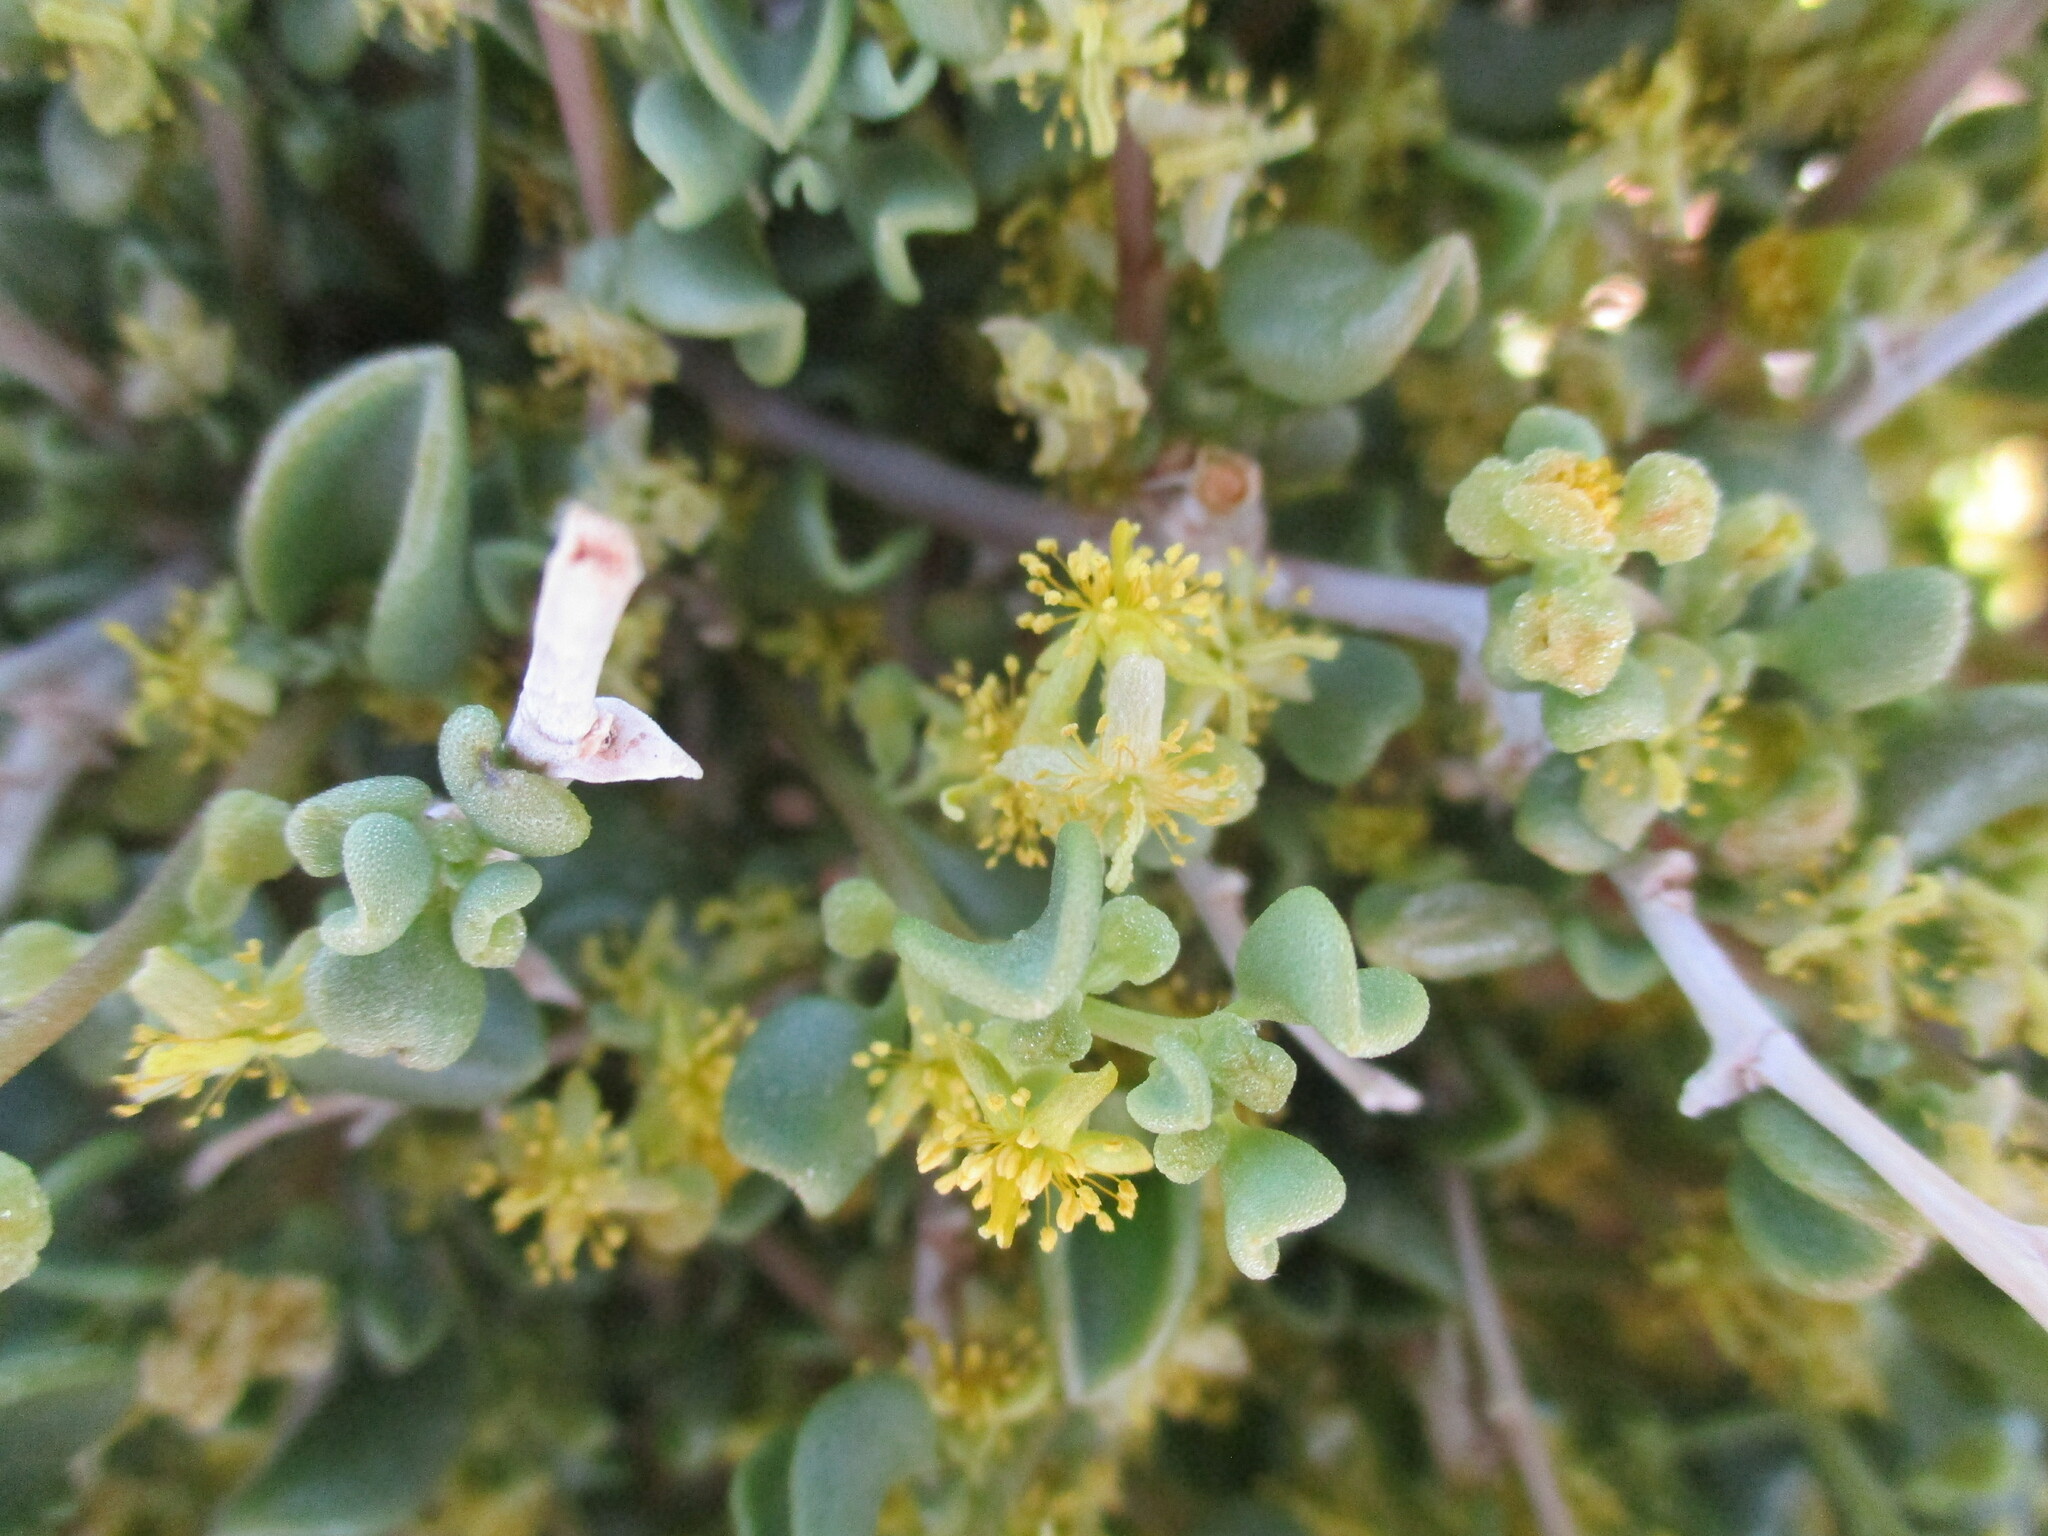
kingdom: Plantae
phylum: Tracheophyta
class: Magnoliopsida
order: Caryophyllales
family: Aizoaceae
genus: Tetragonia
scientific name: Tetragonia reduplicata
